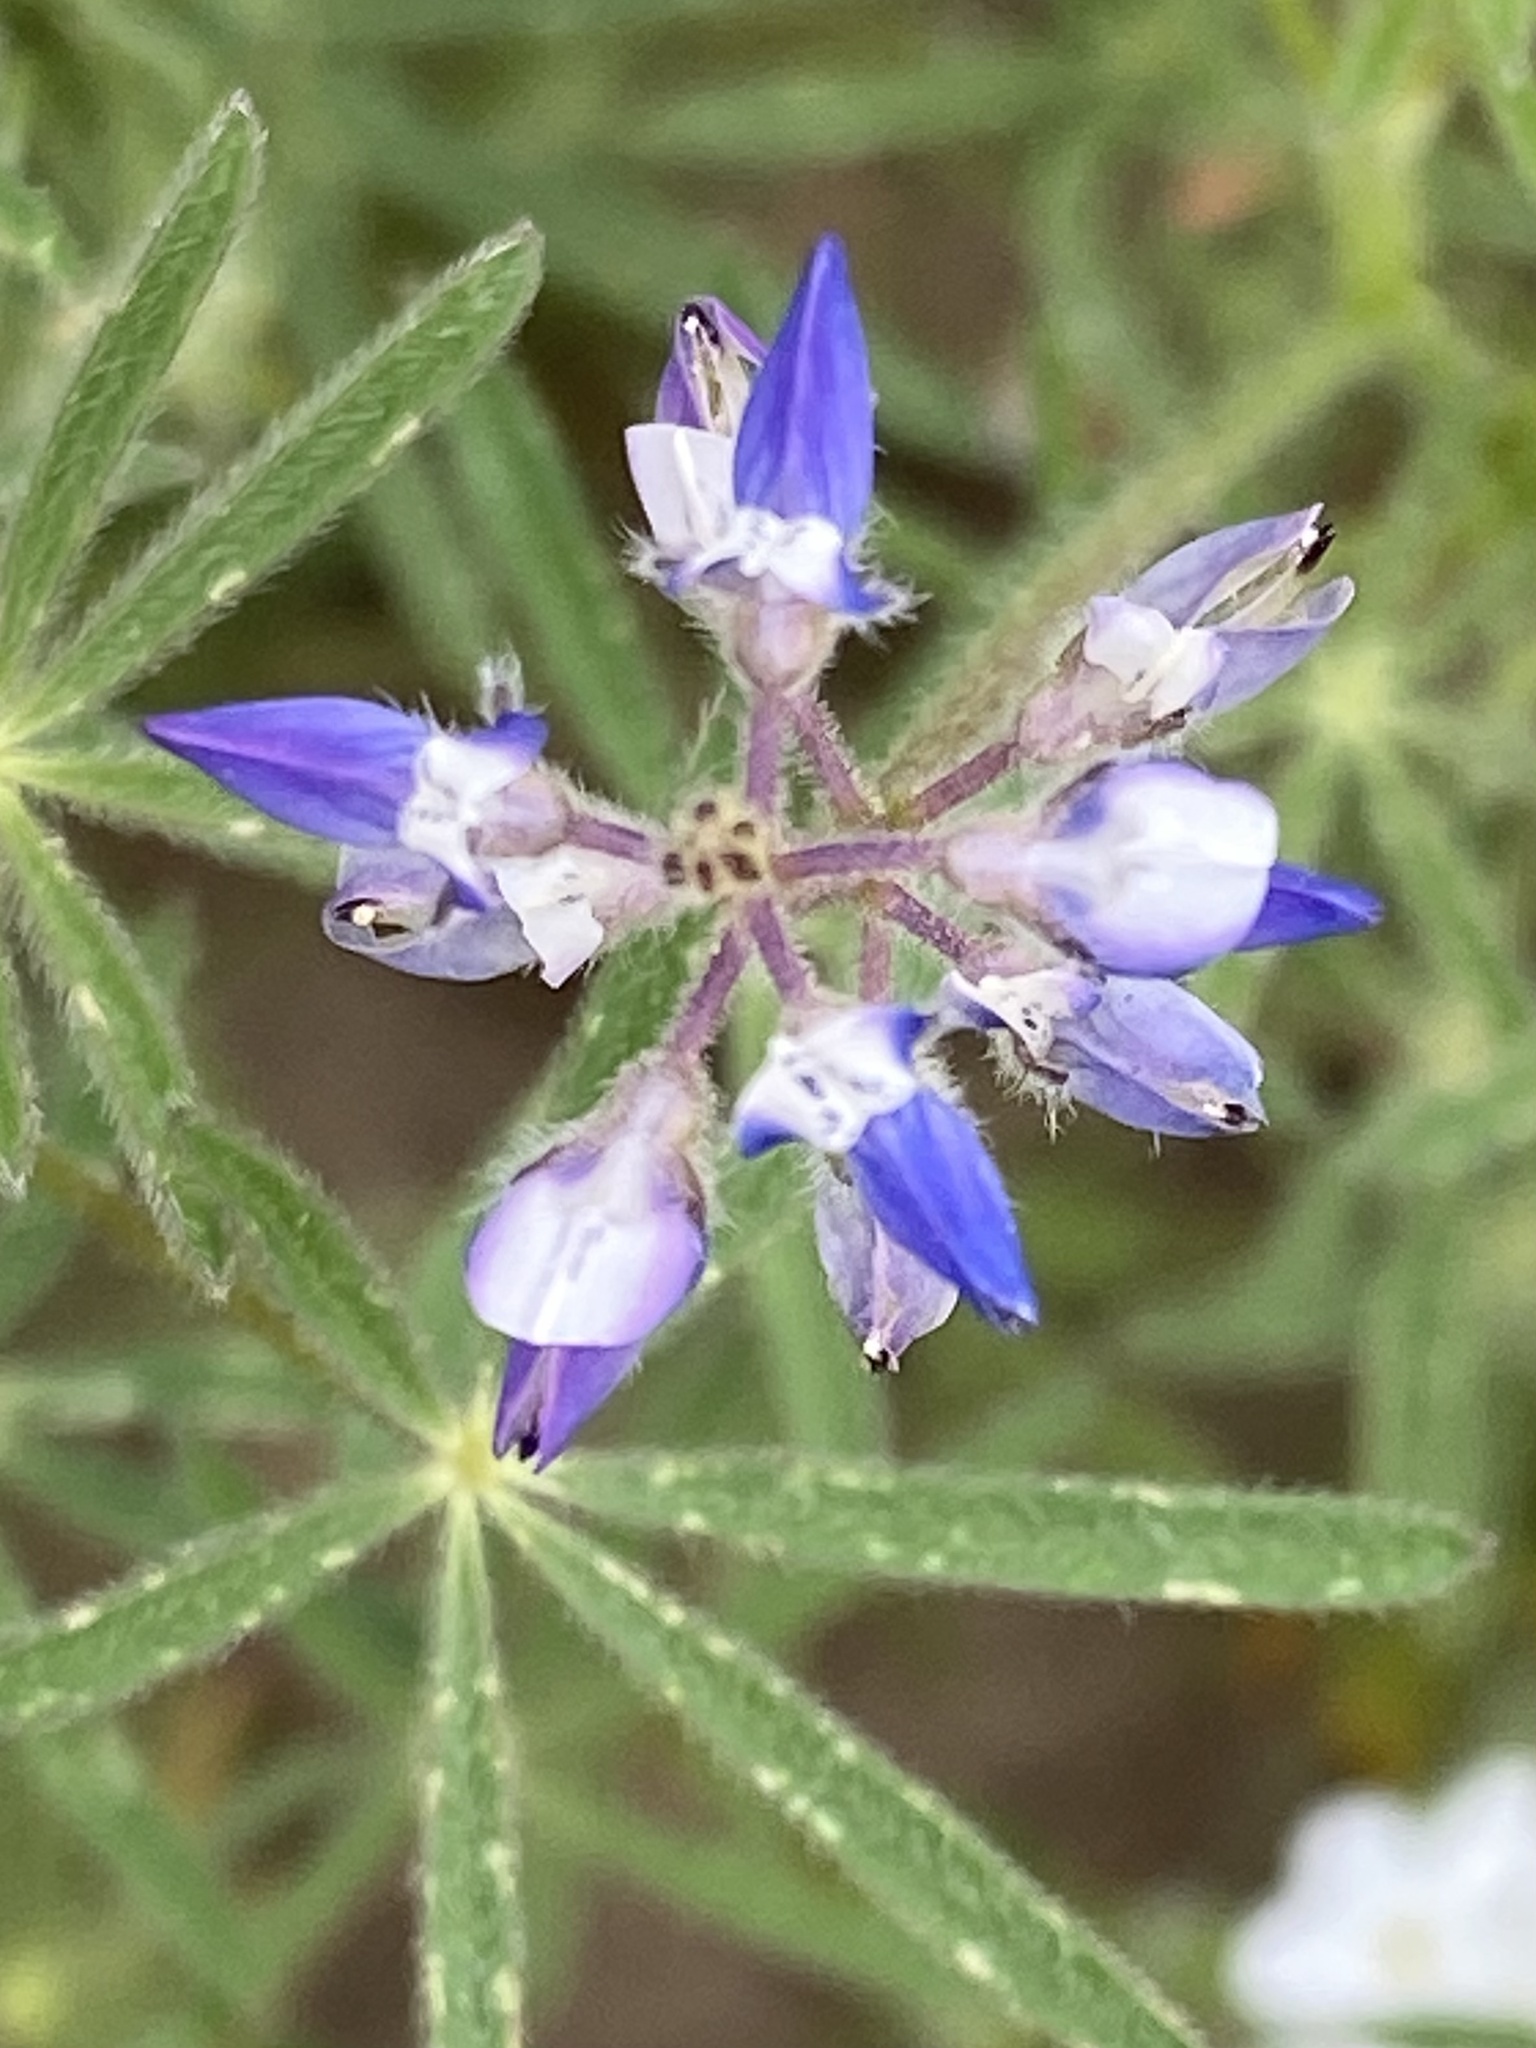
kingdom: Plantae
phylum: Tracheophyta
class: Magnoliopsida
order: Fabales
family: Fabaceae
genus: Lupinus
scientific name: Lupinus bicolor
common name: Miniature lupine
